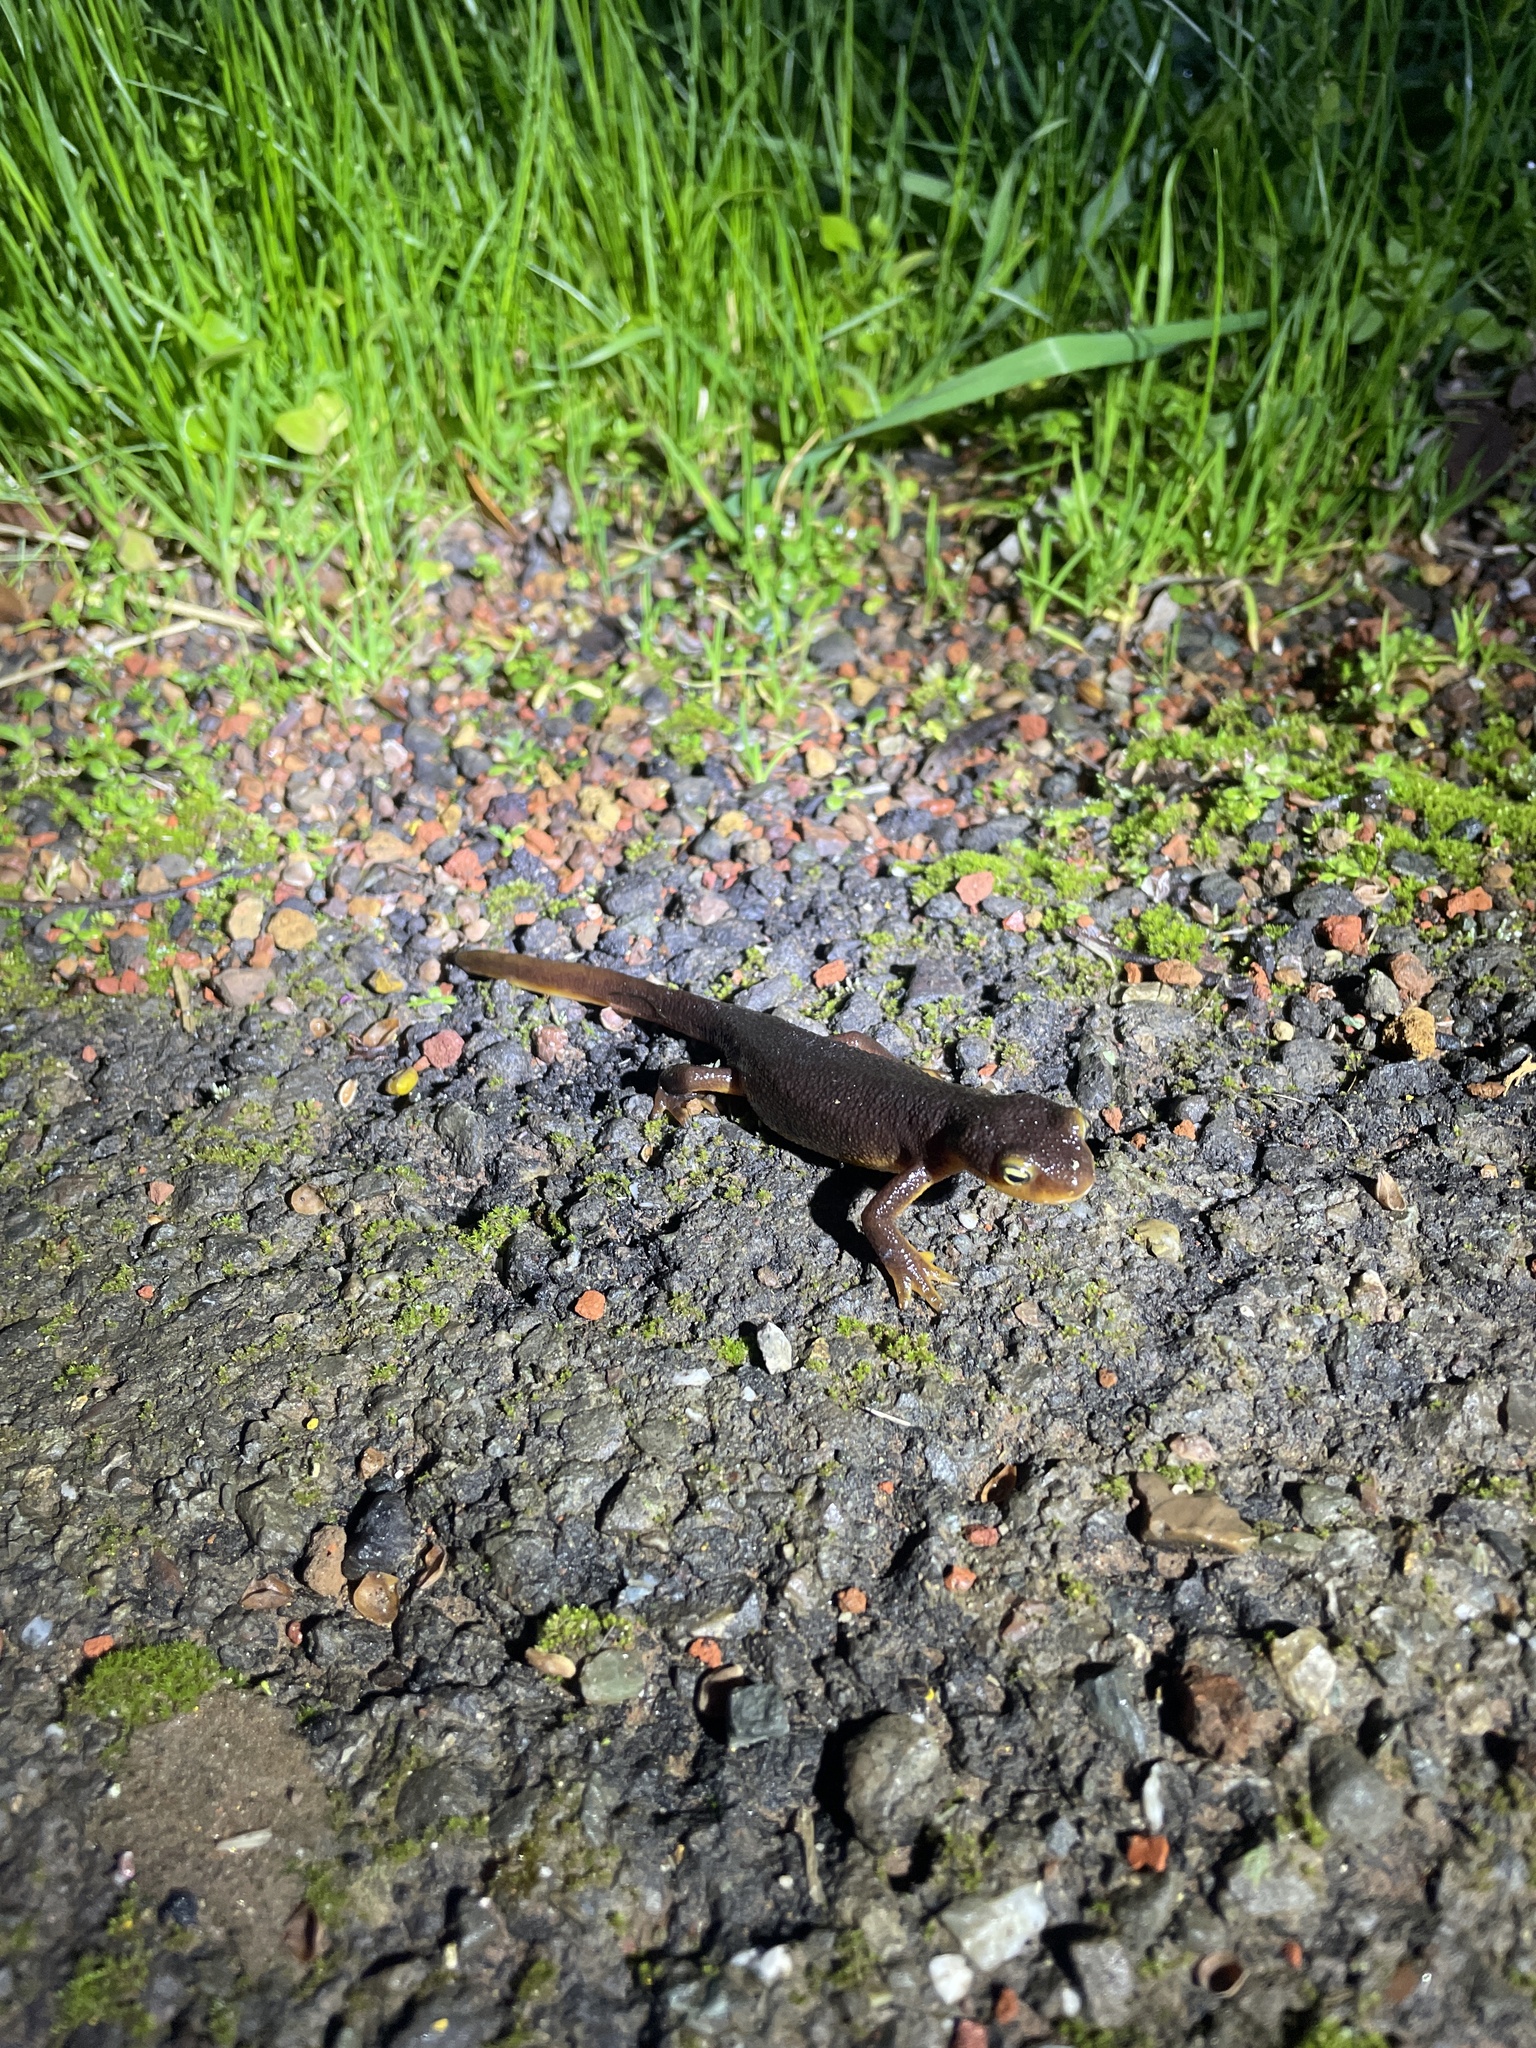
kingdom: Animalia
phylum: Chordata
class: Amphibia
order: Caudata
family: Salamandridae
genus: Taricha
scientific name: Taricha torosa
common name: California newt
